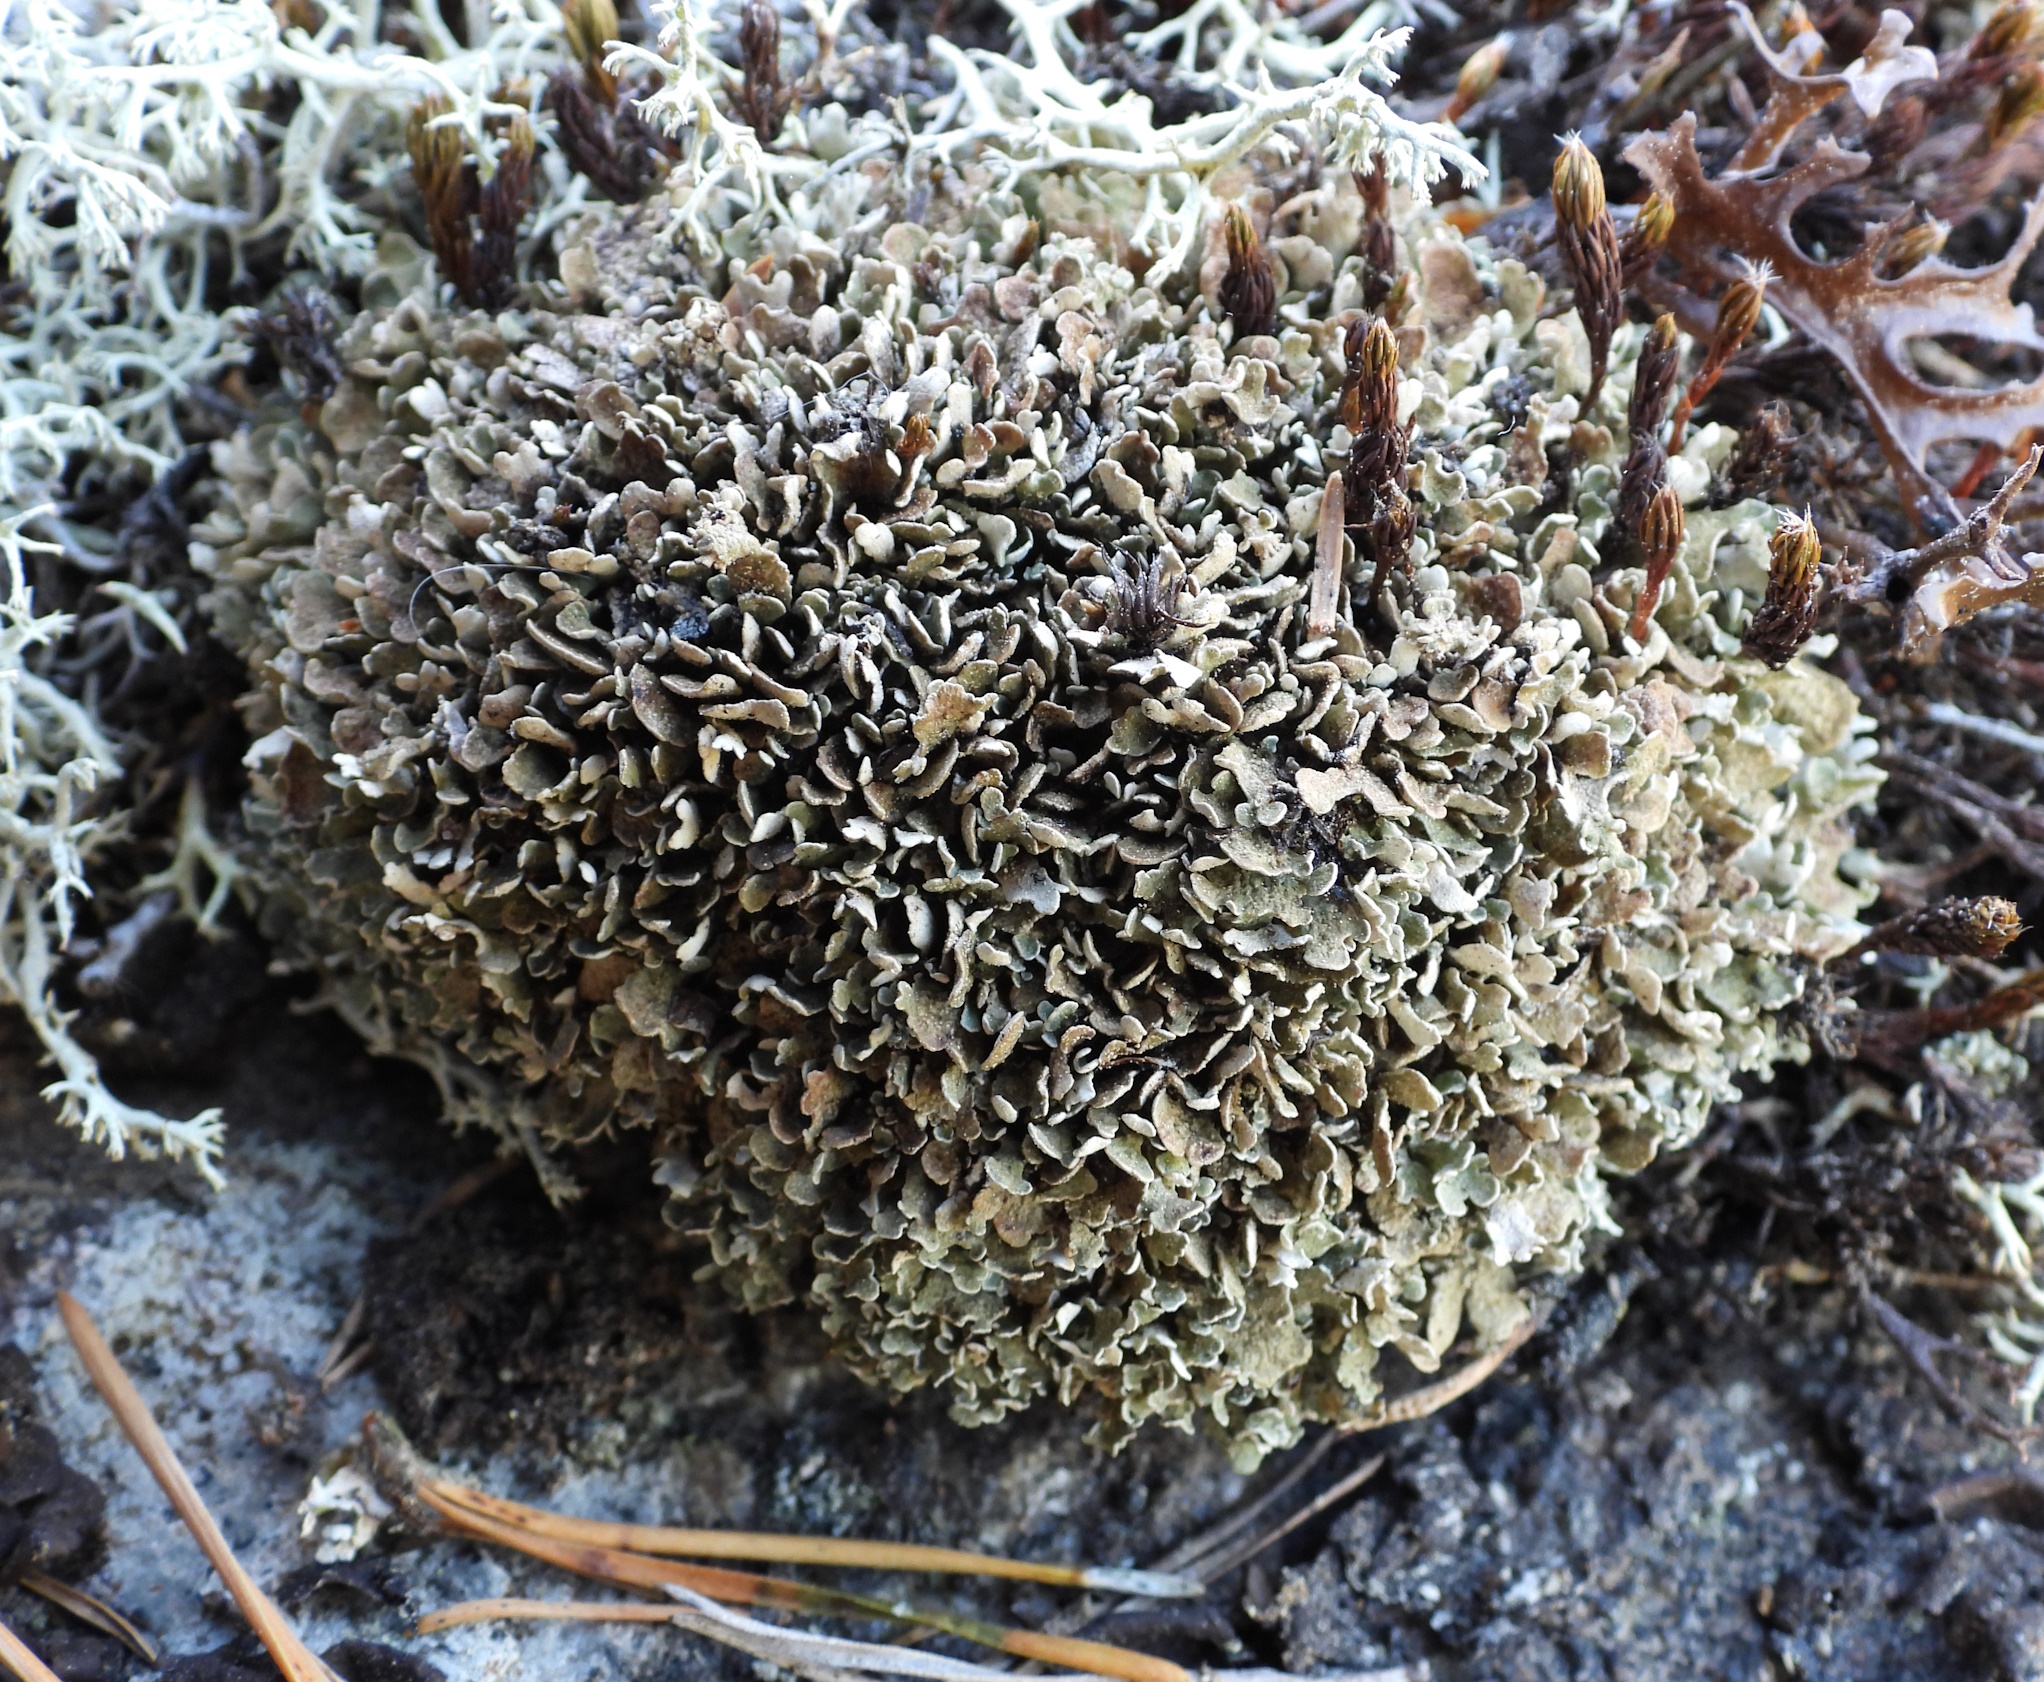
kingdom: Fungi
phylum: Ascomycota
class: Lecanoromycetes
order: Lecanorales
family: Cladoniaceae
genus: Cladonia
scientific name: Cladonia strepsilis
